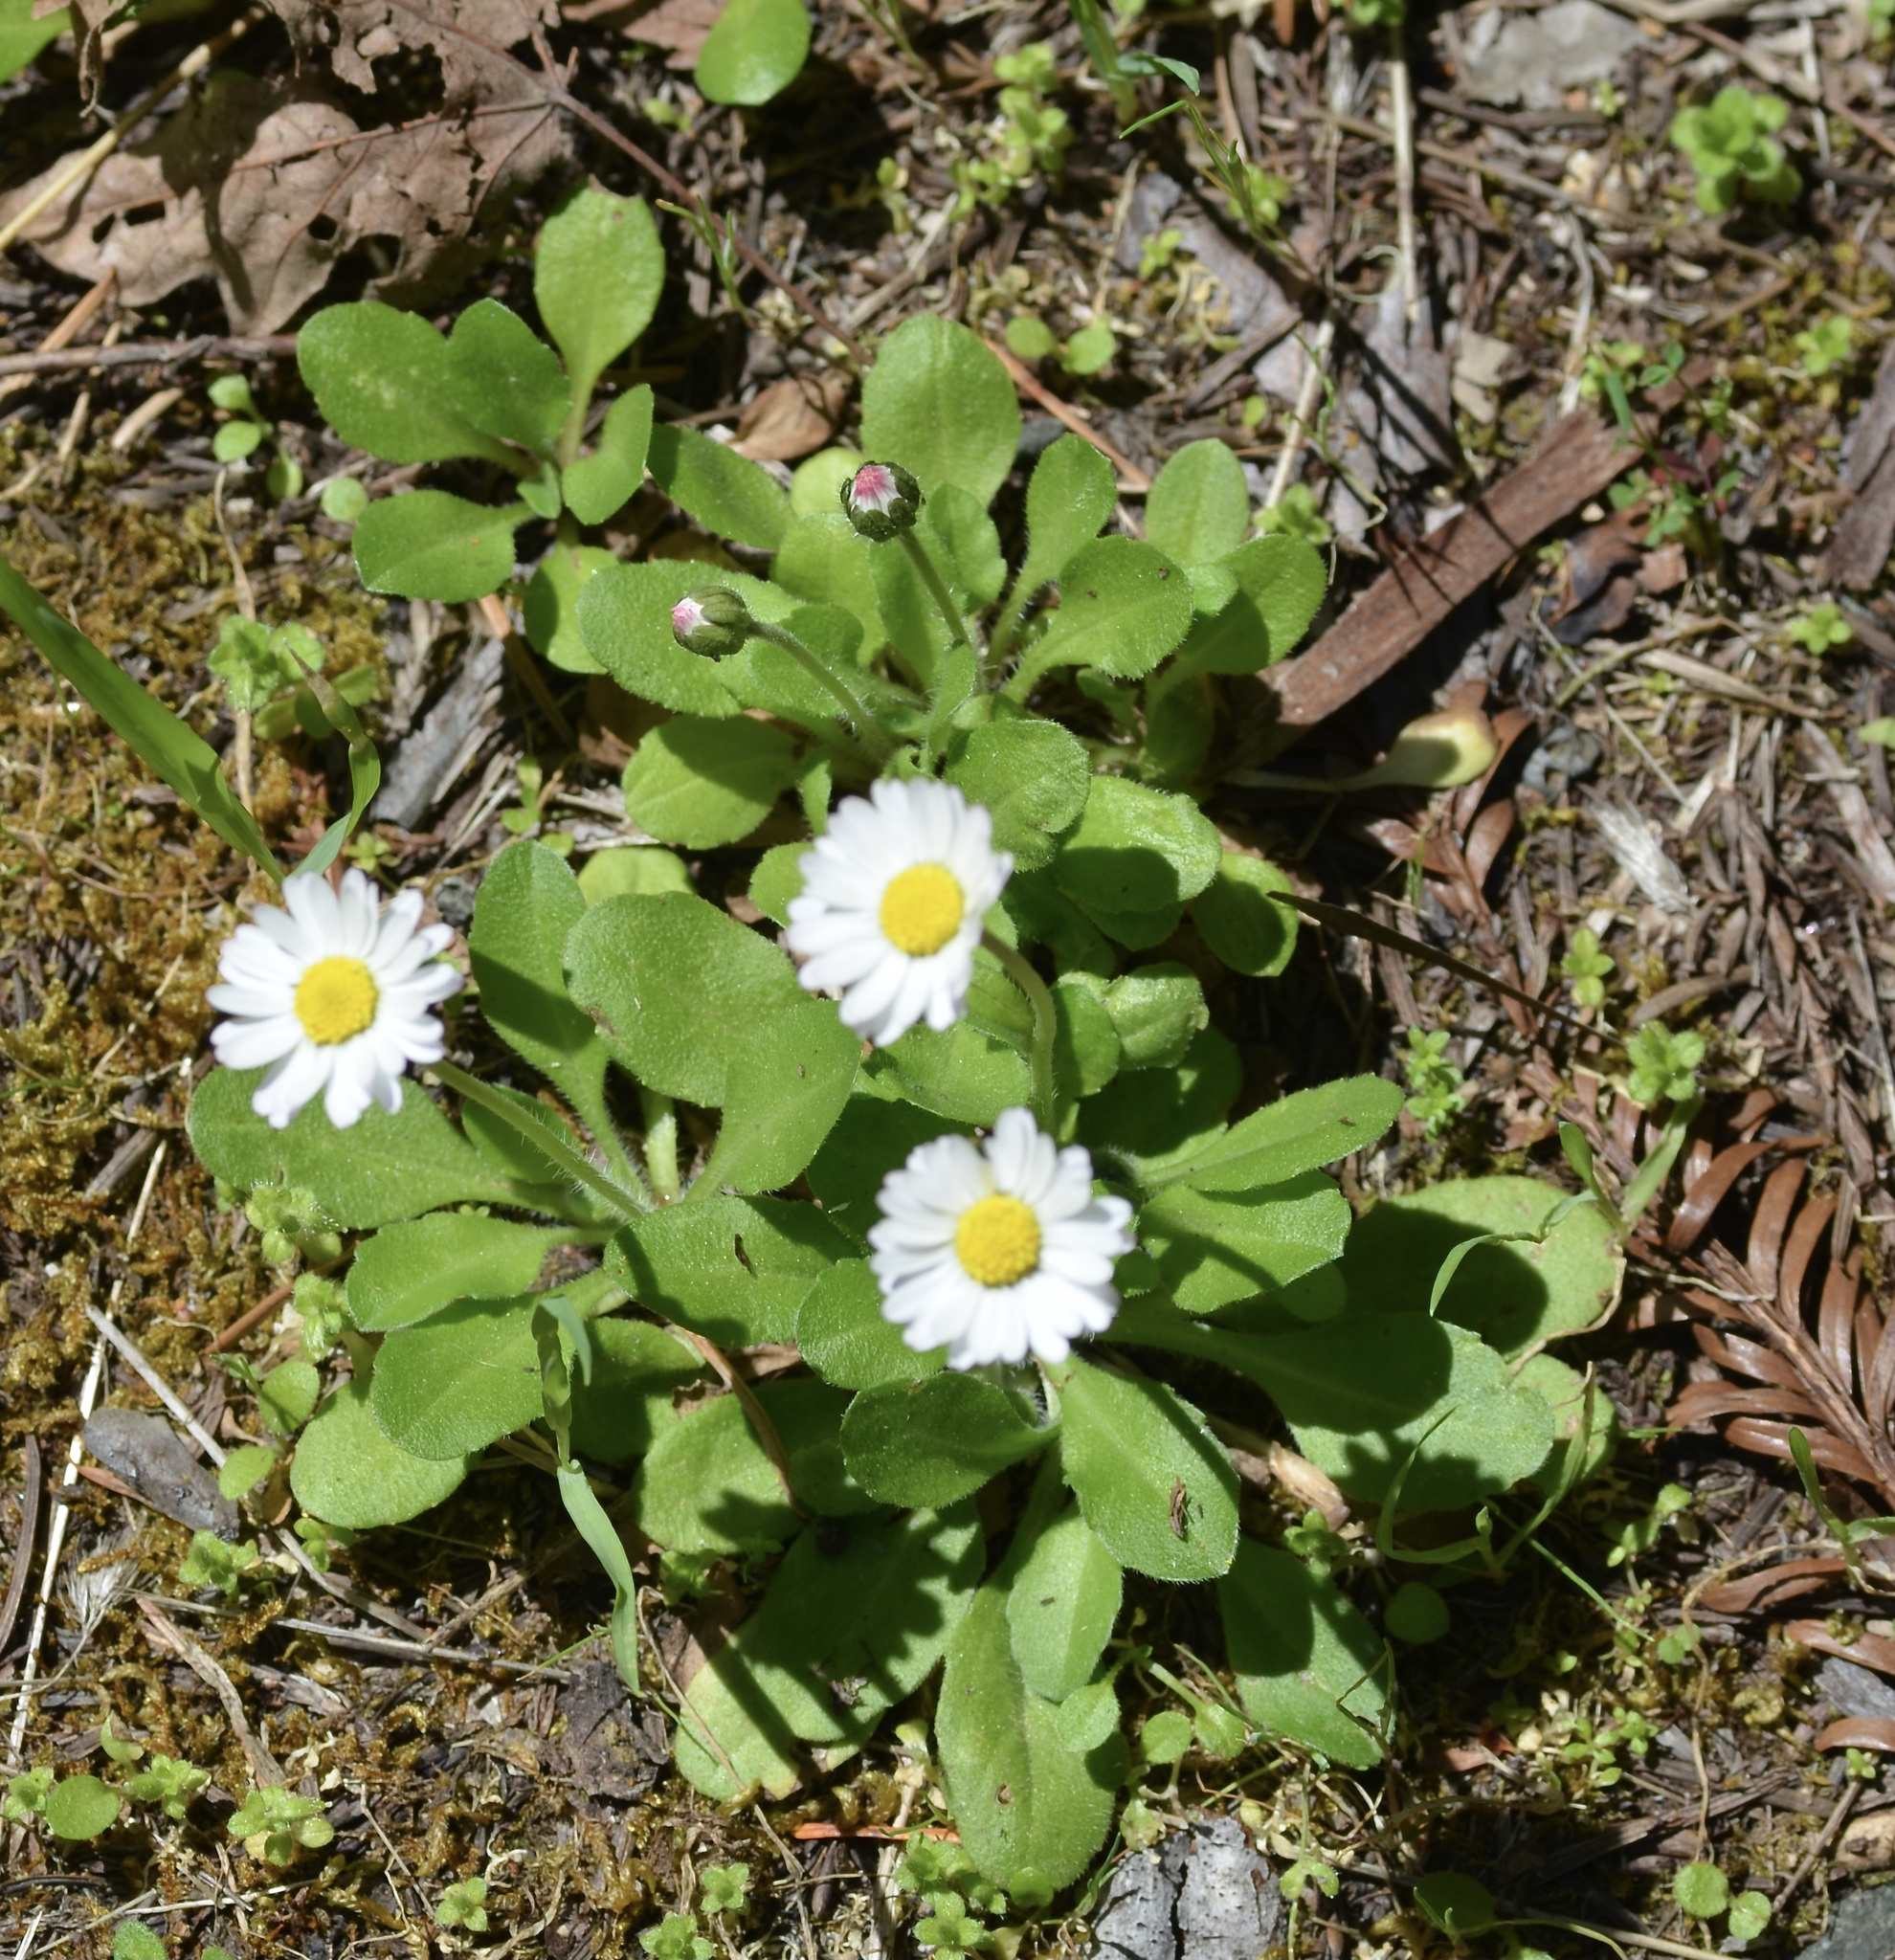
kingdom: Plantae
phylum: Tracheophyta
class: Magnoliopsida
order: Asterales
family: Asteraceae
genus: Bellis
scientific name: Bellis perennis
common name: Lawndaisy
